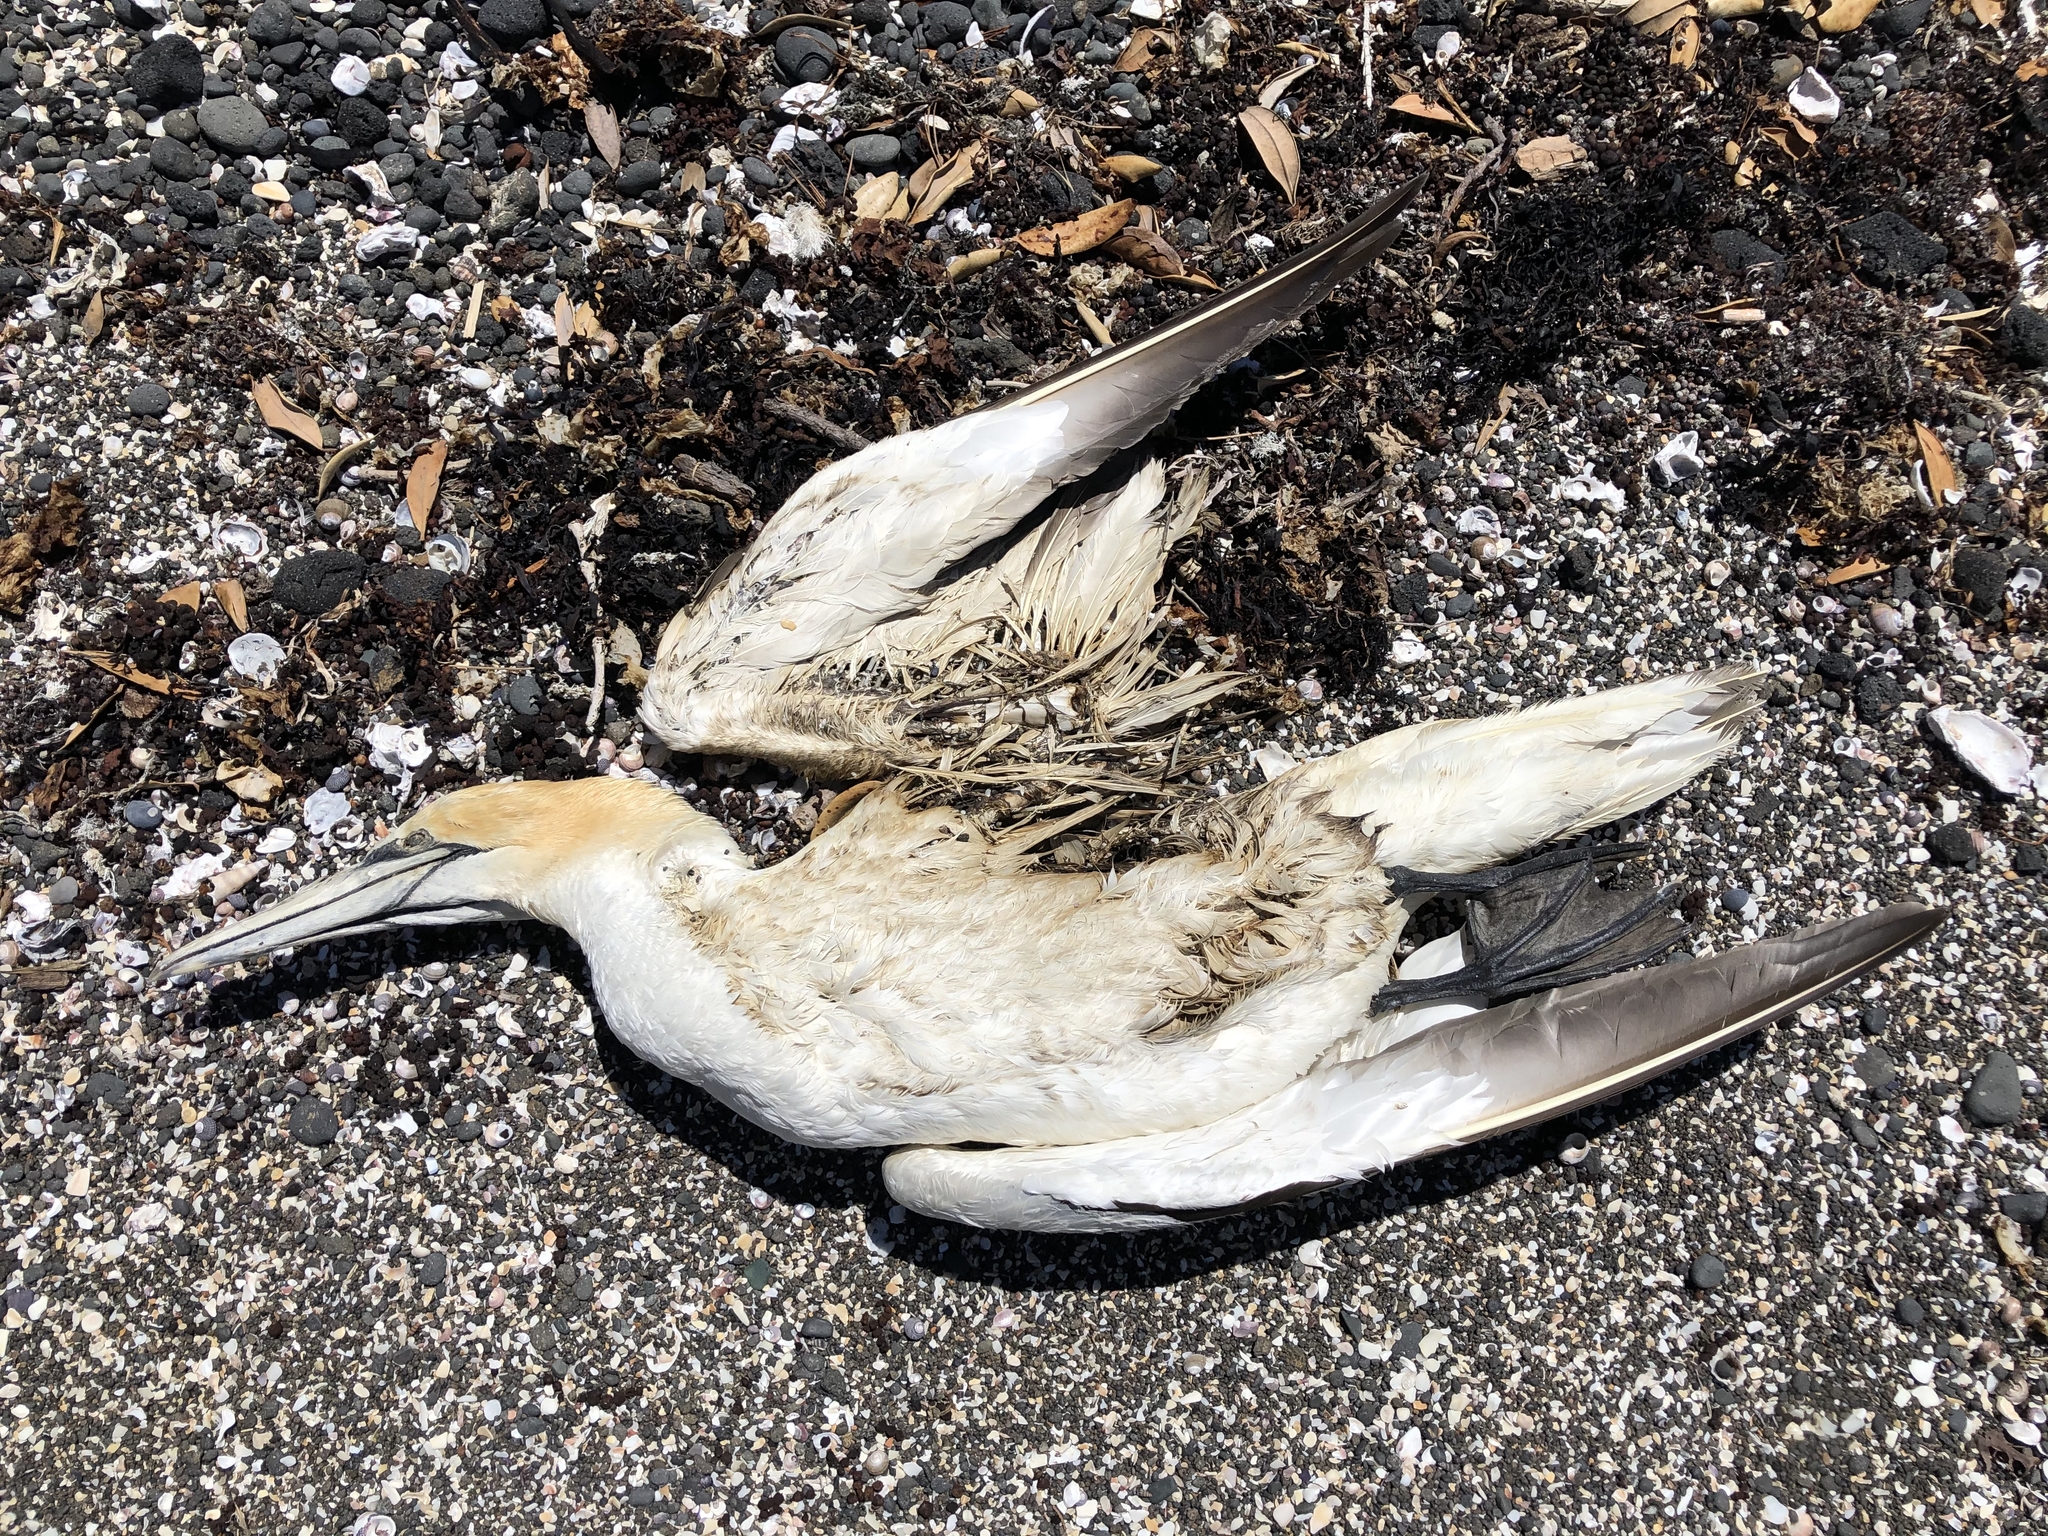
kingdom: Animalia
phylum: Chordata
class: Aves
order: Suliformes
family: Sulidae
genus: Morus
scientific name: Morus serrator
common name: Australasian gannet
